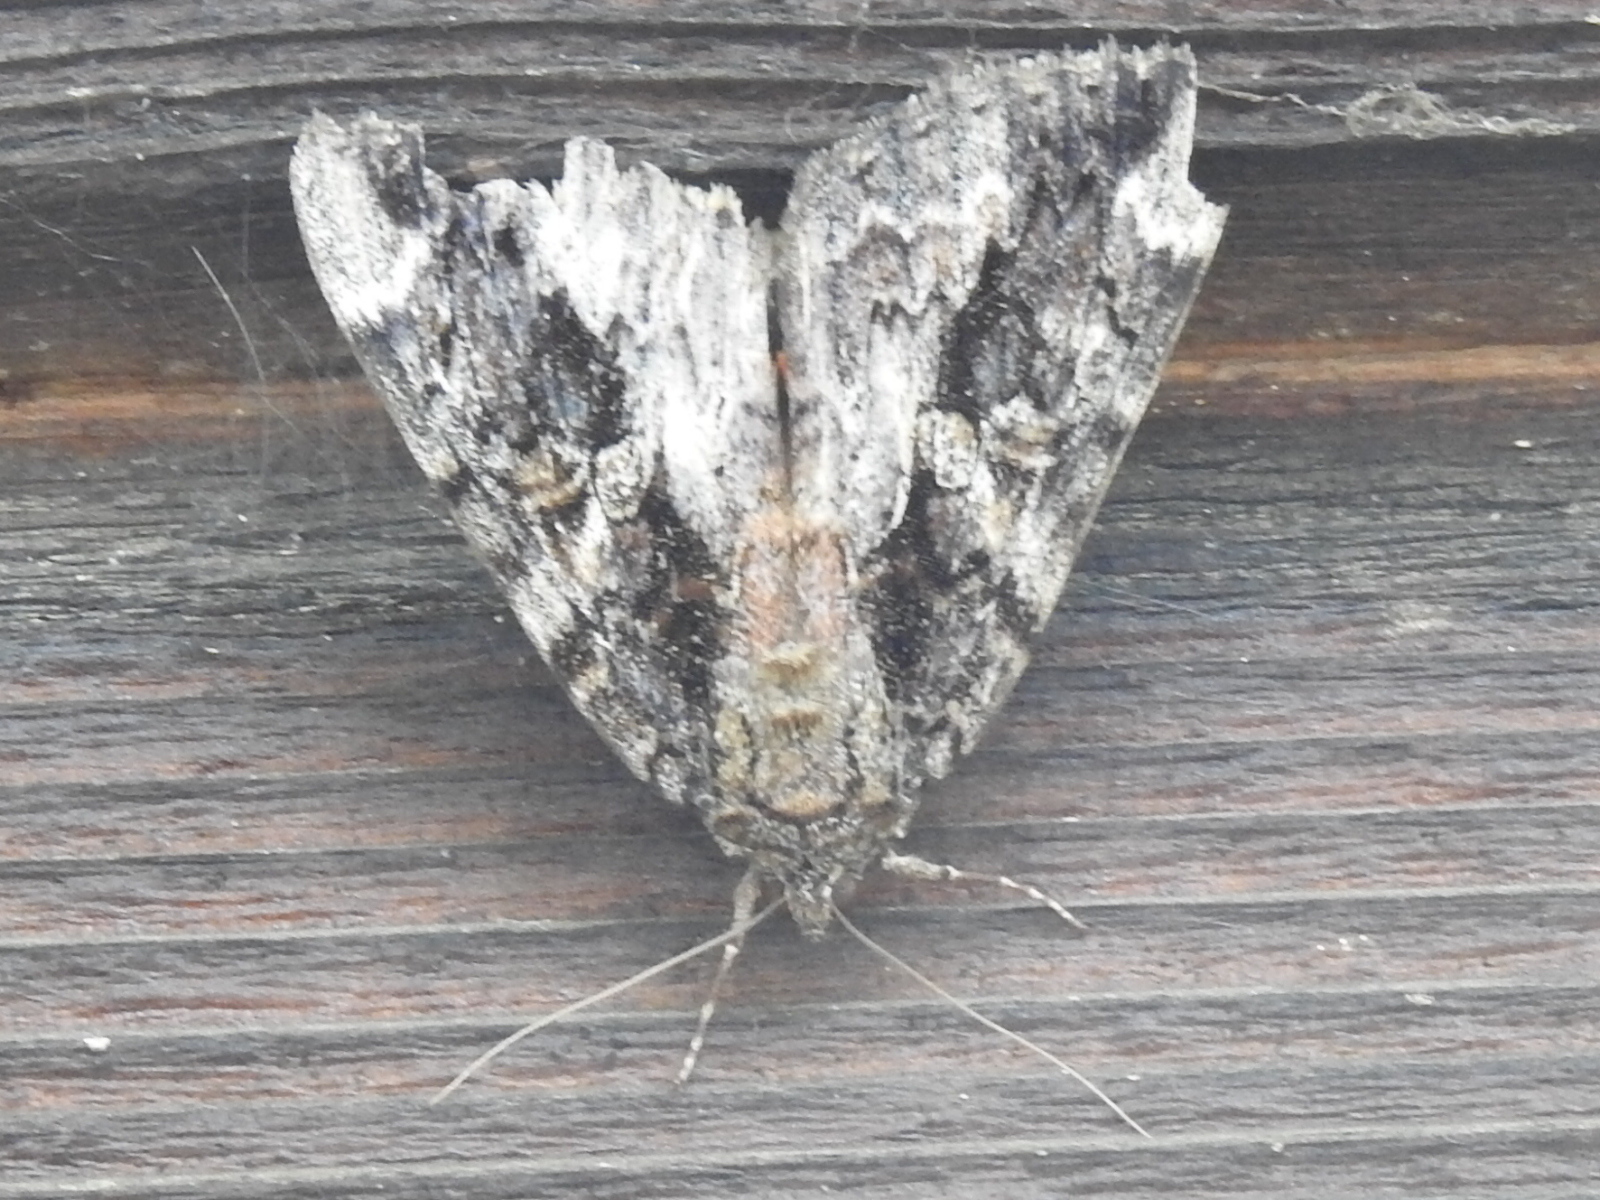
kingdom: Animalia
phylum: Arthropoda
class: Insecta
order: Lepidoptera
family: Erebidae
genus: Catocala
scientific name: Catocala innubens
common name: Betrothed underwing
